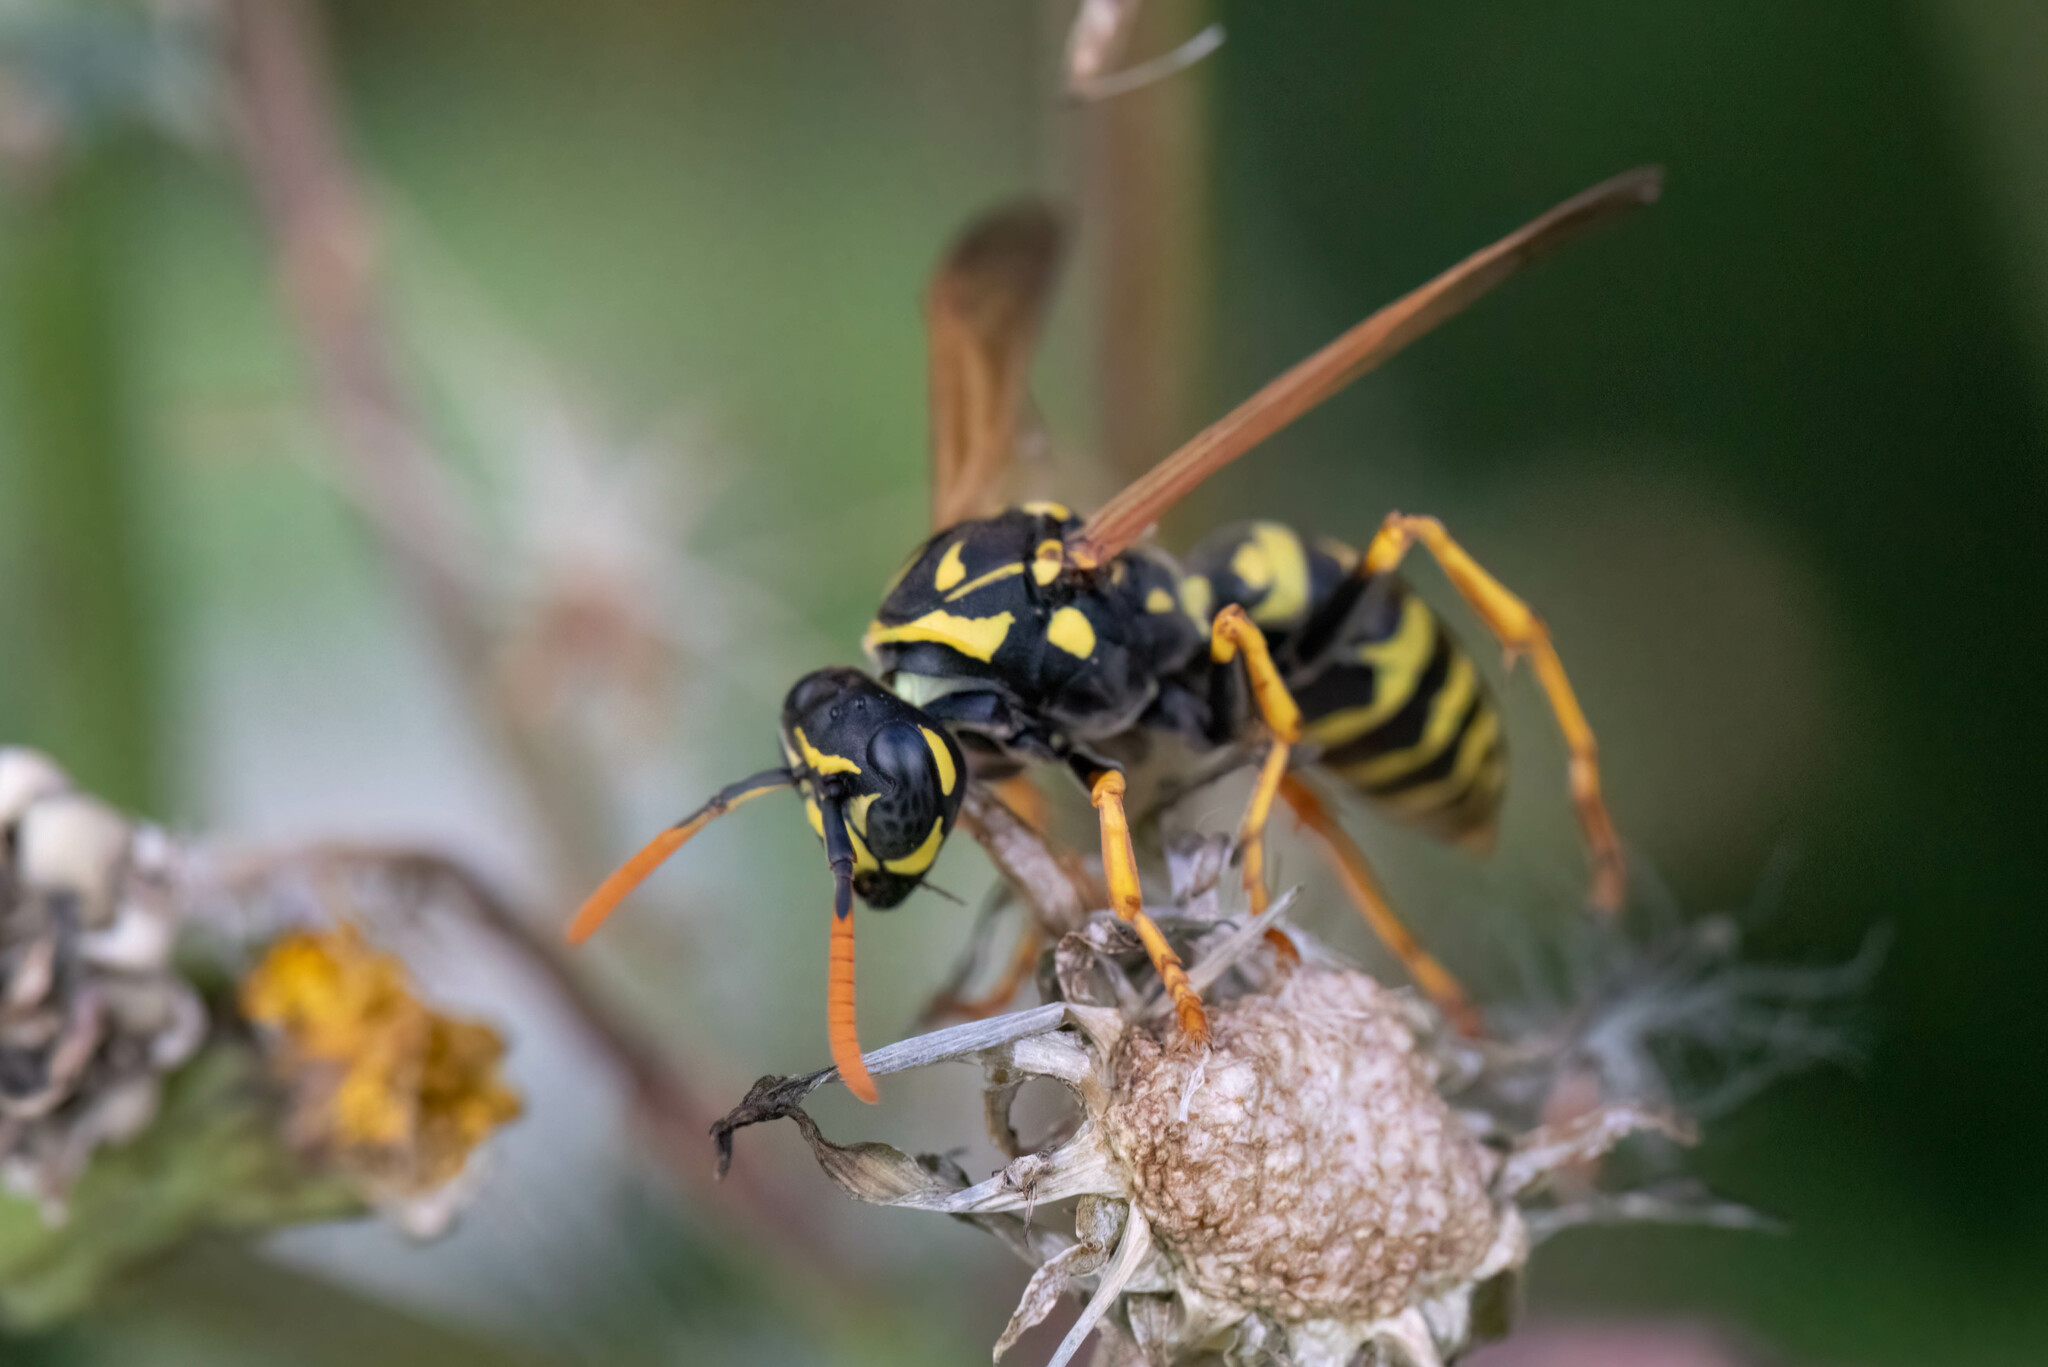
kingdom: Animalia
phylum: Arthropoda
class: Insecta
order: Hymenoptera
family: Eumenidae
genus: Polistes
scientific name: Polistes dominula
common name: Paper wasp
